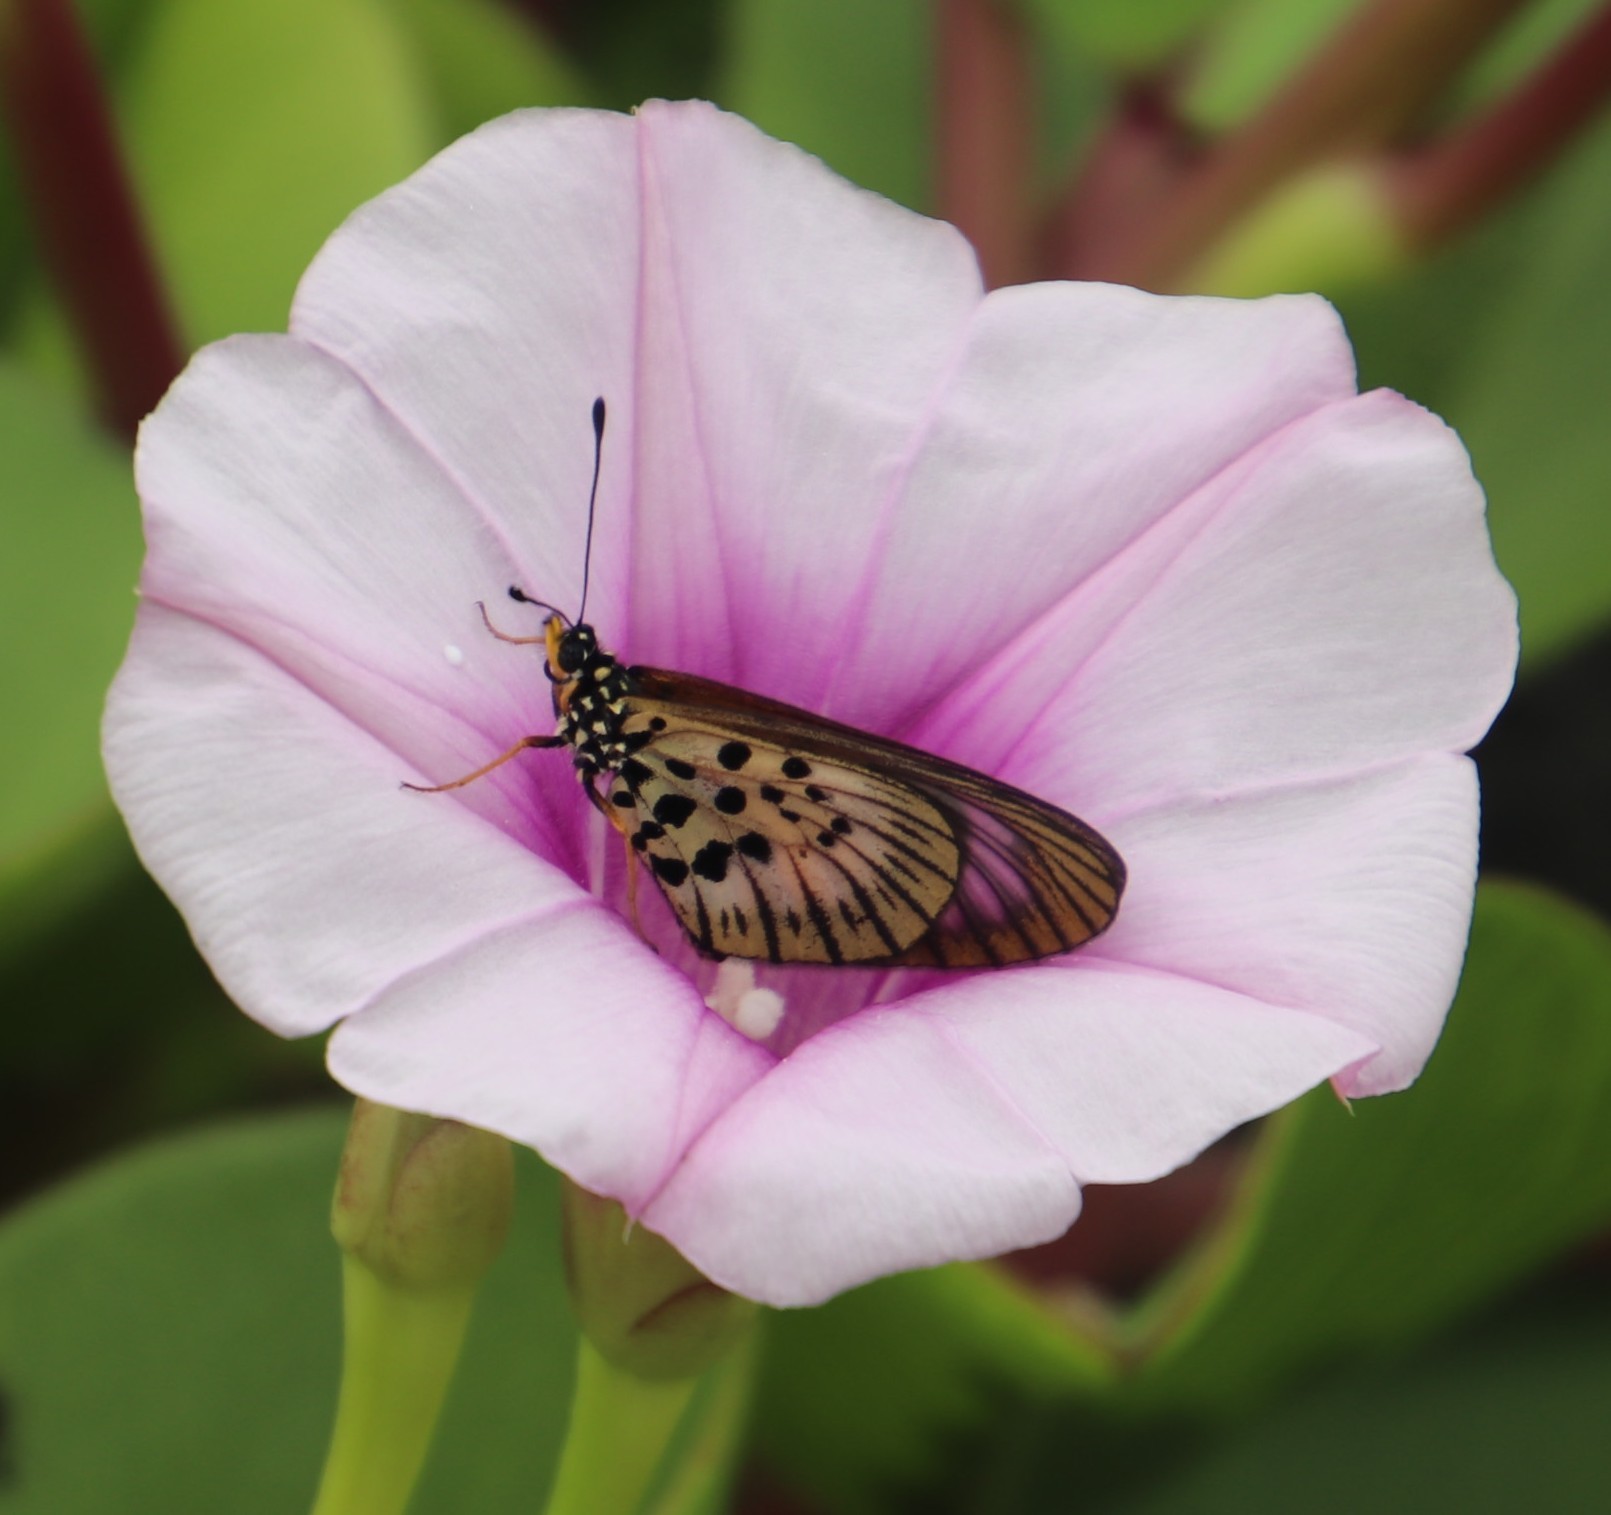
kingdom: Animalia
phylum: Arthropoda
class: Insecta
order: Lepidoptera
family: Nymphalidae
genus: Acraea
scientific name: Acraea igola
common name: Dusky-veined acraea
